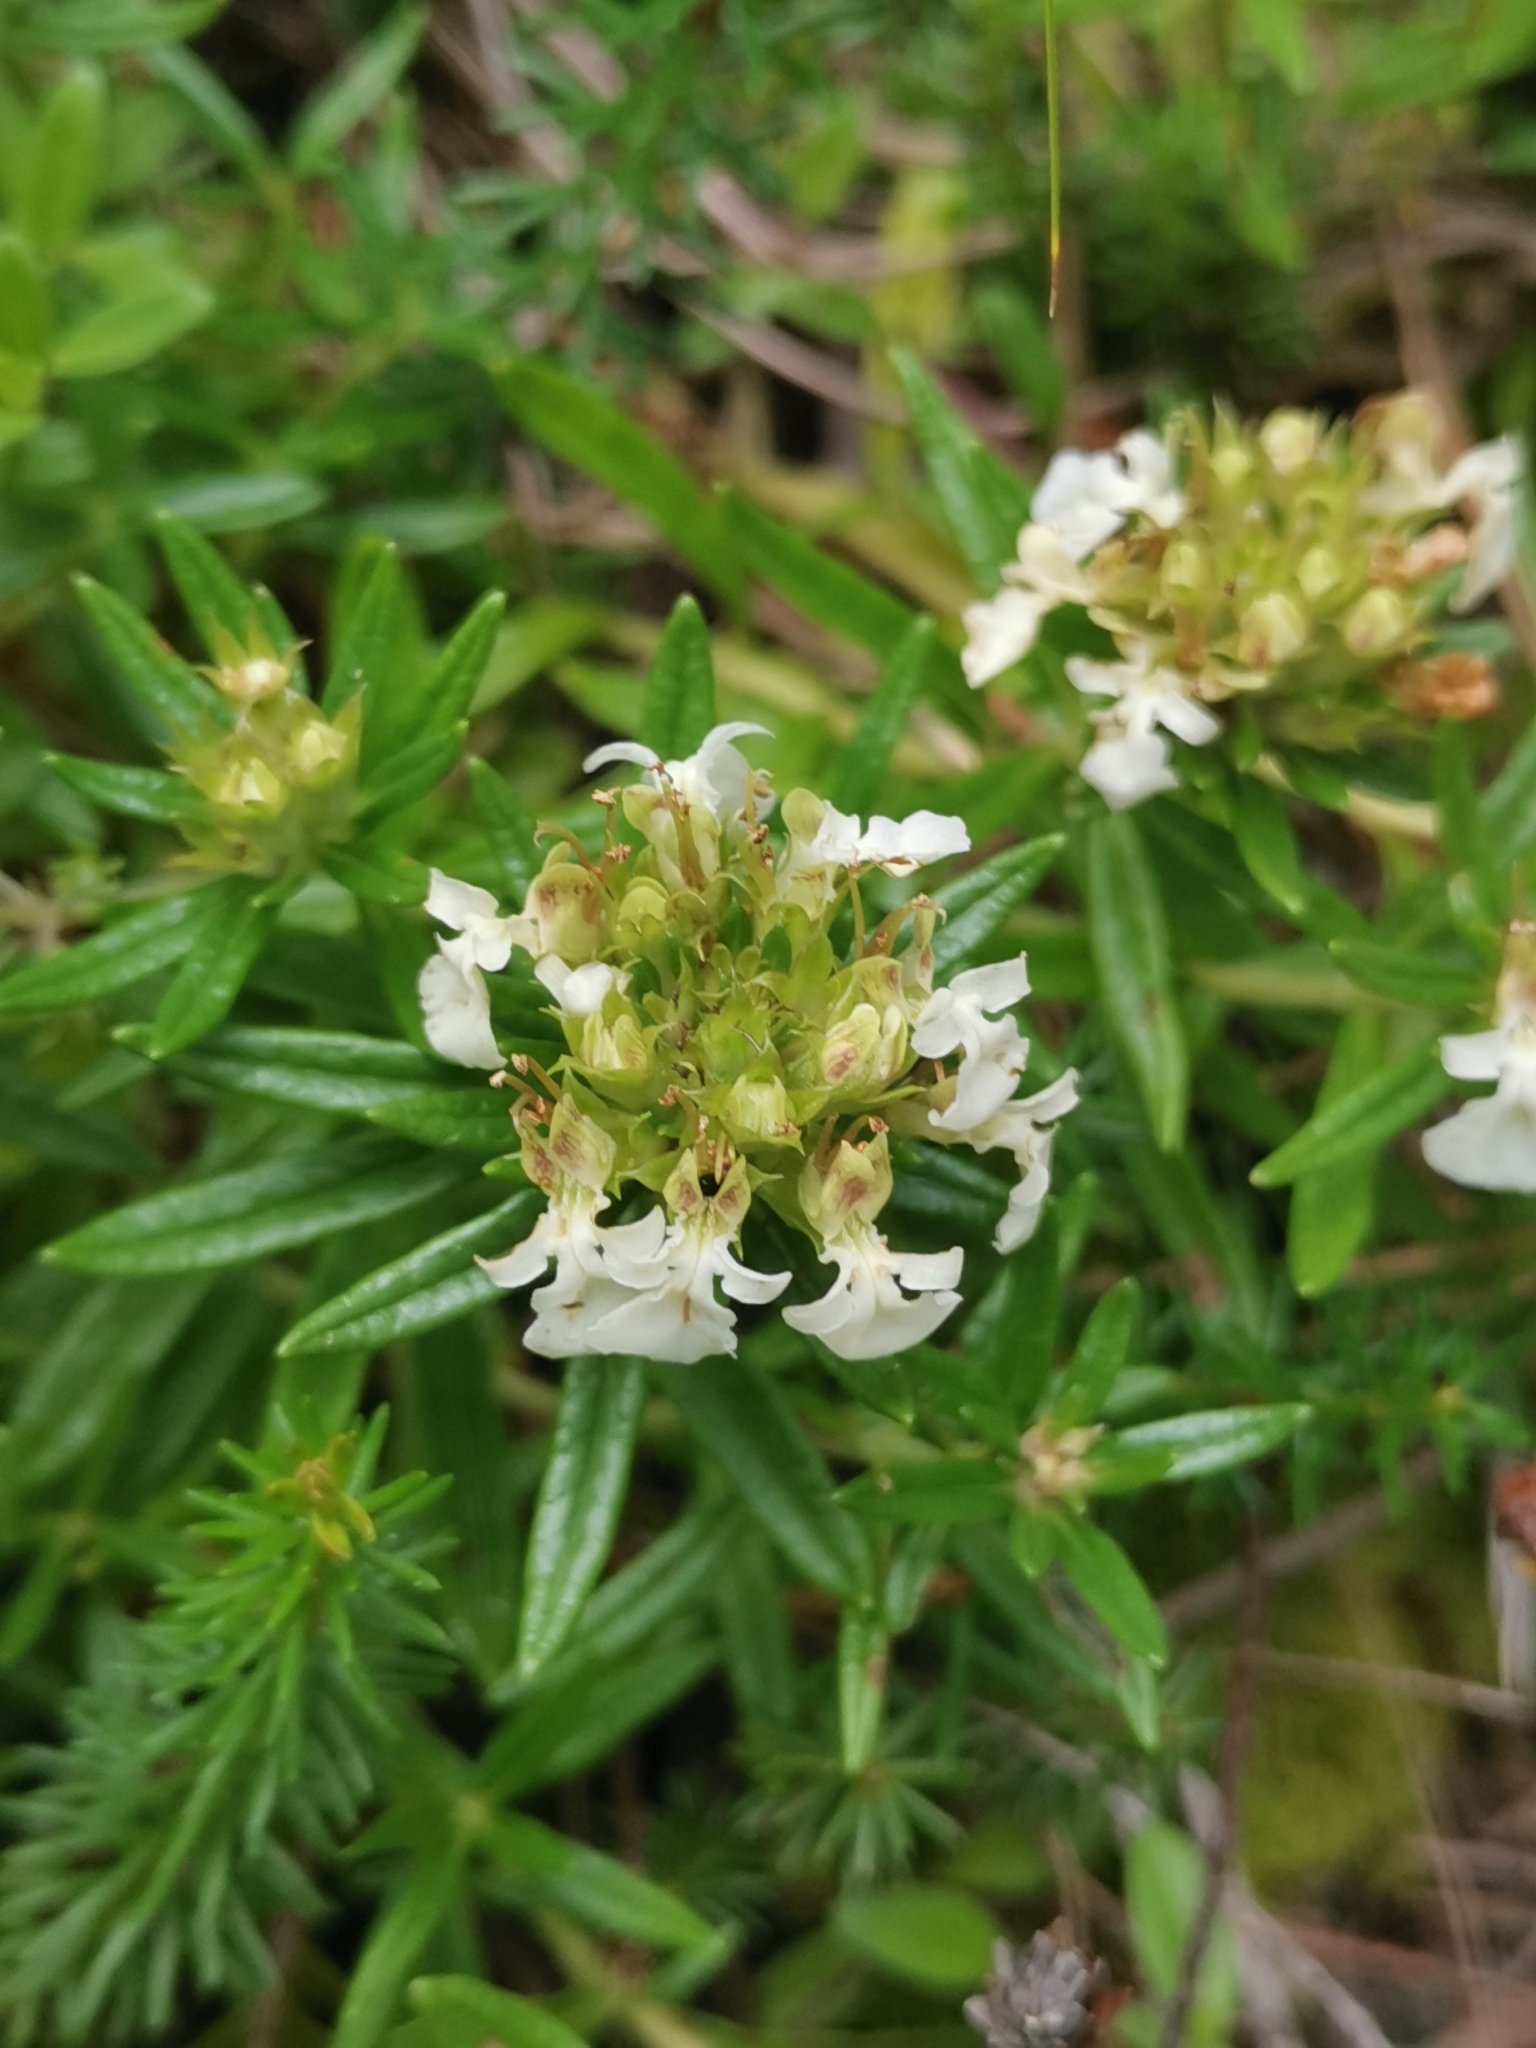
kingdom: Plantae
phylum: Tracheophyta
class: Magnoliopsida
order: Lamiales
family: Lamiaceae
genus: Teucrium
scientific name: Teucrium montanum
